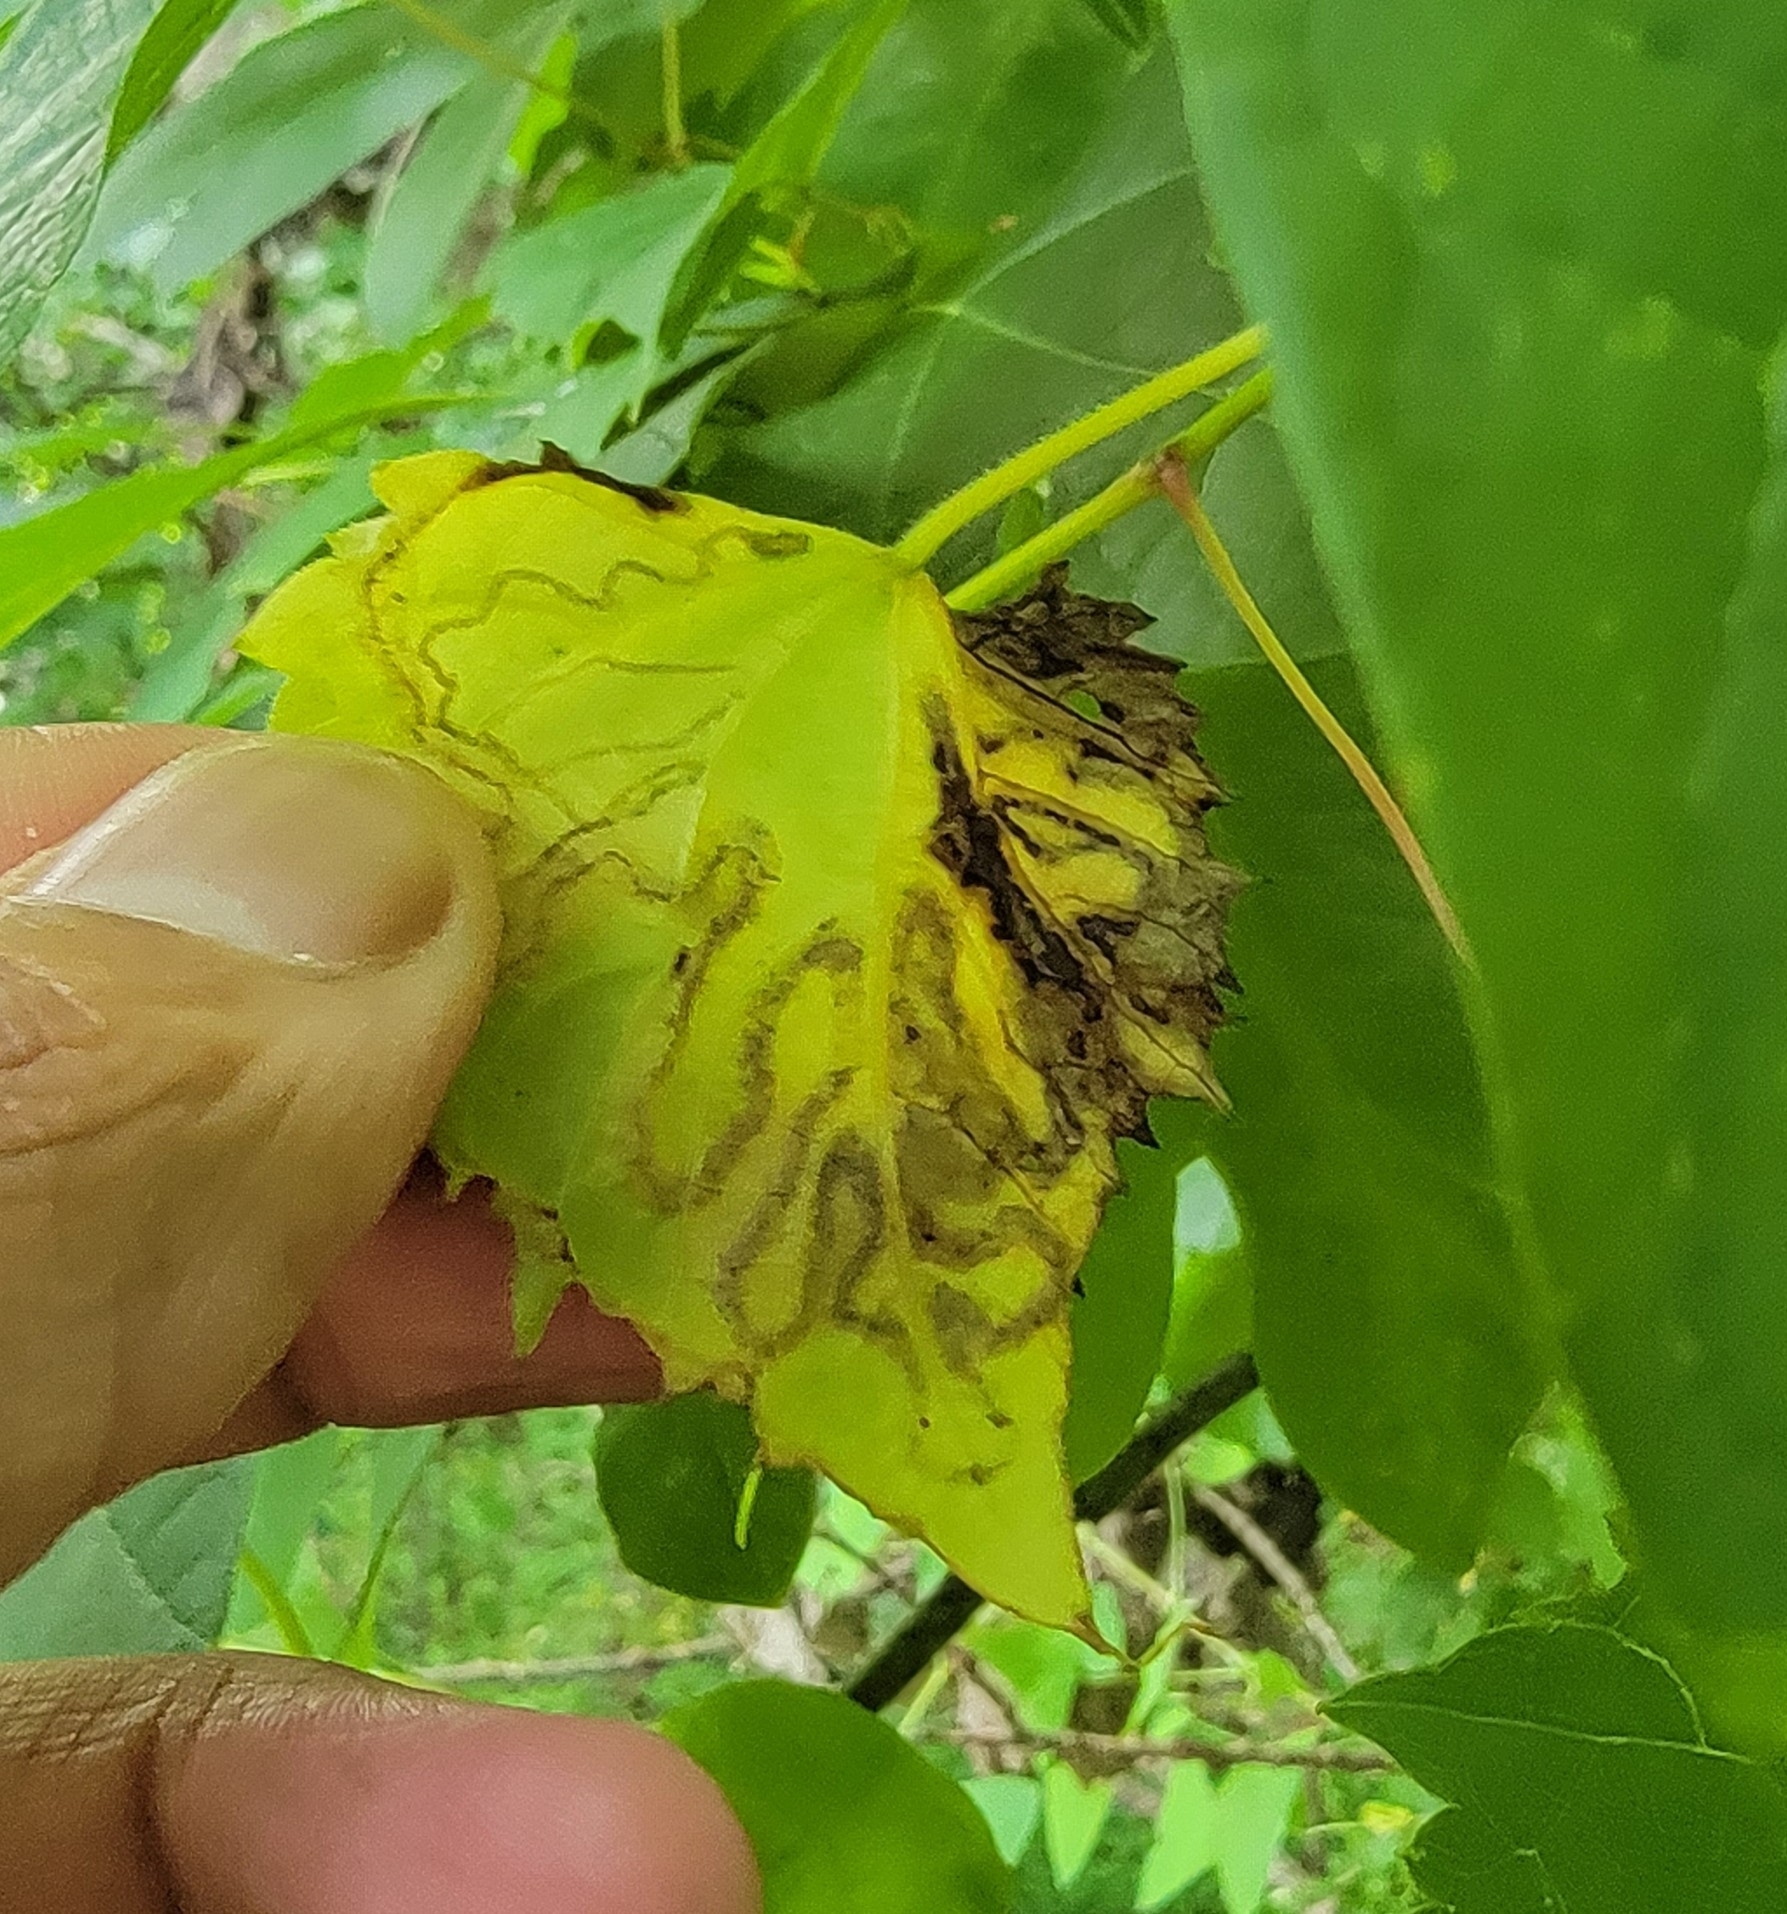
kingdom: Animalia
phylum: Arthropoda
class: Insecta
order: Lepidoptera
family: Gracillariidae
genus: Phyllocnistis
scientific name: Phyllocnistis vitifoliella
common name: Grape leaf-miner moth
